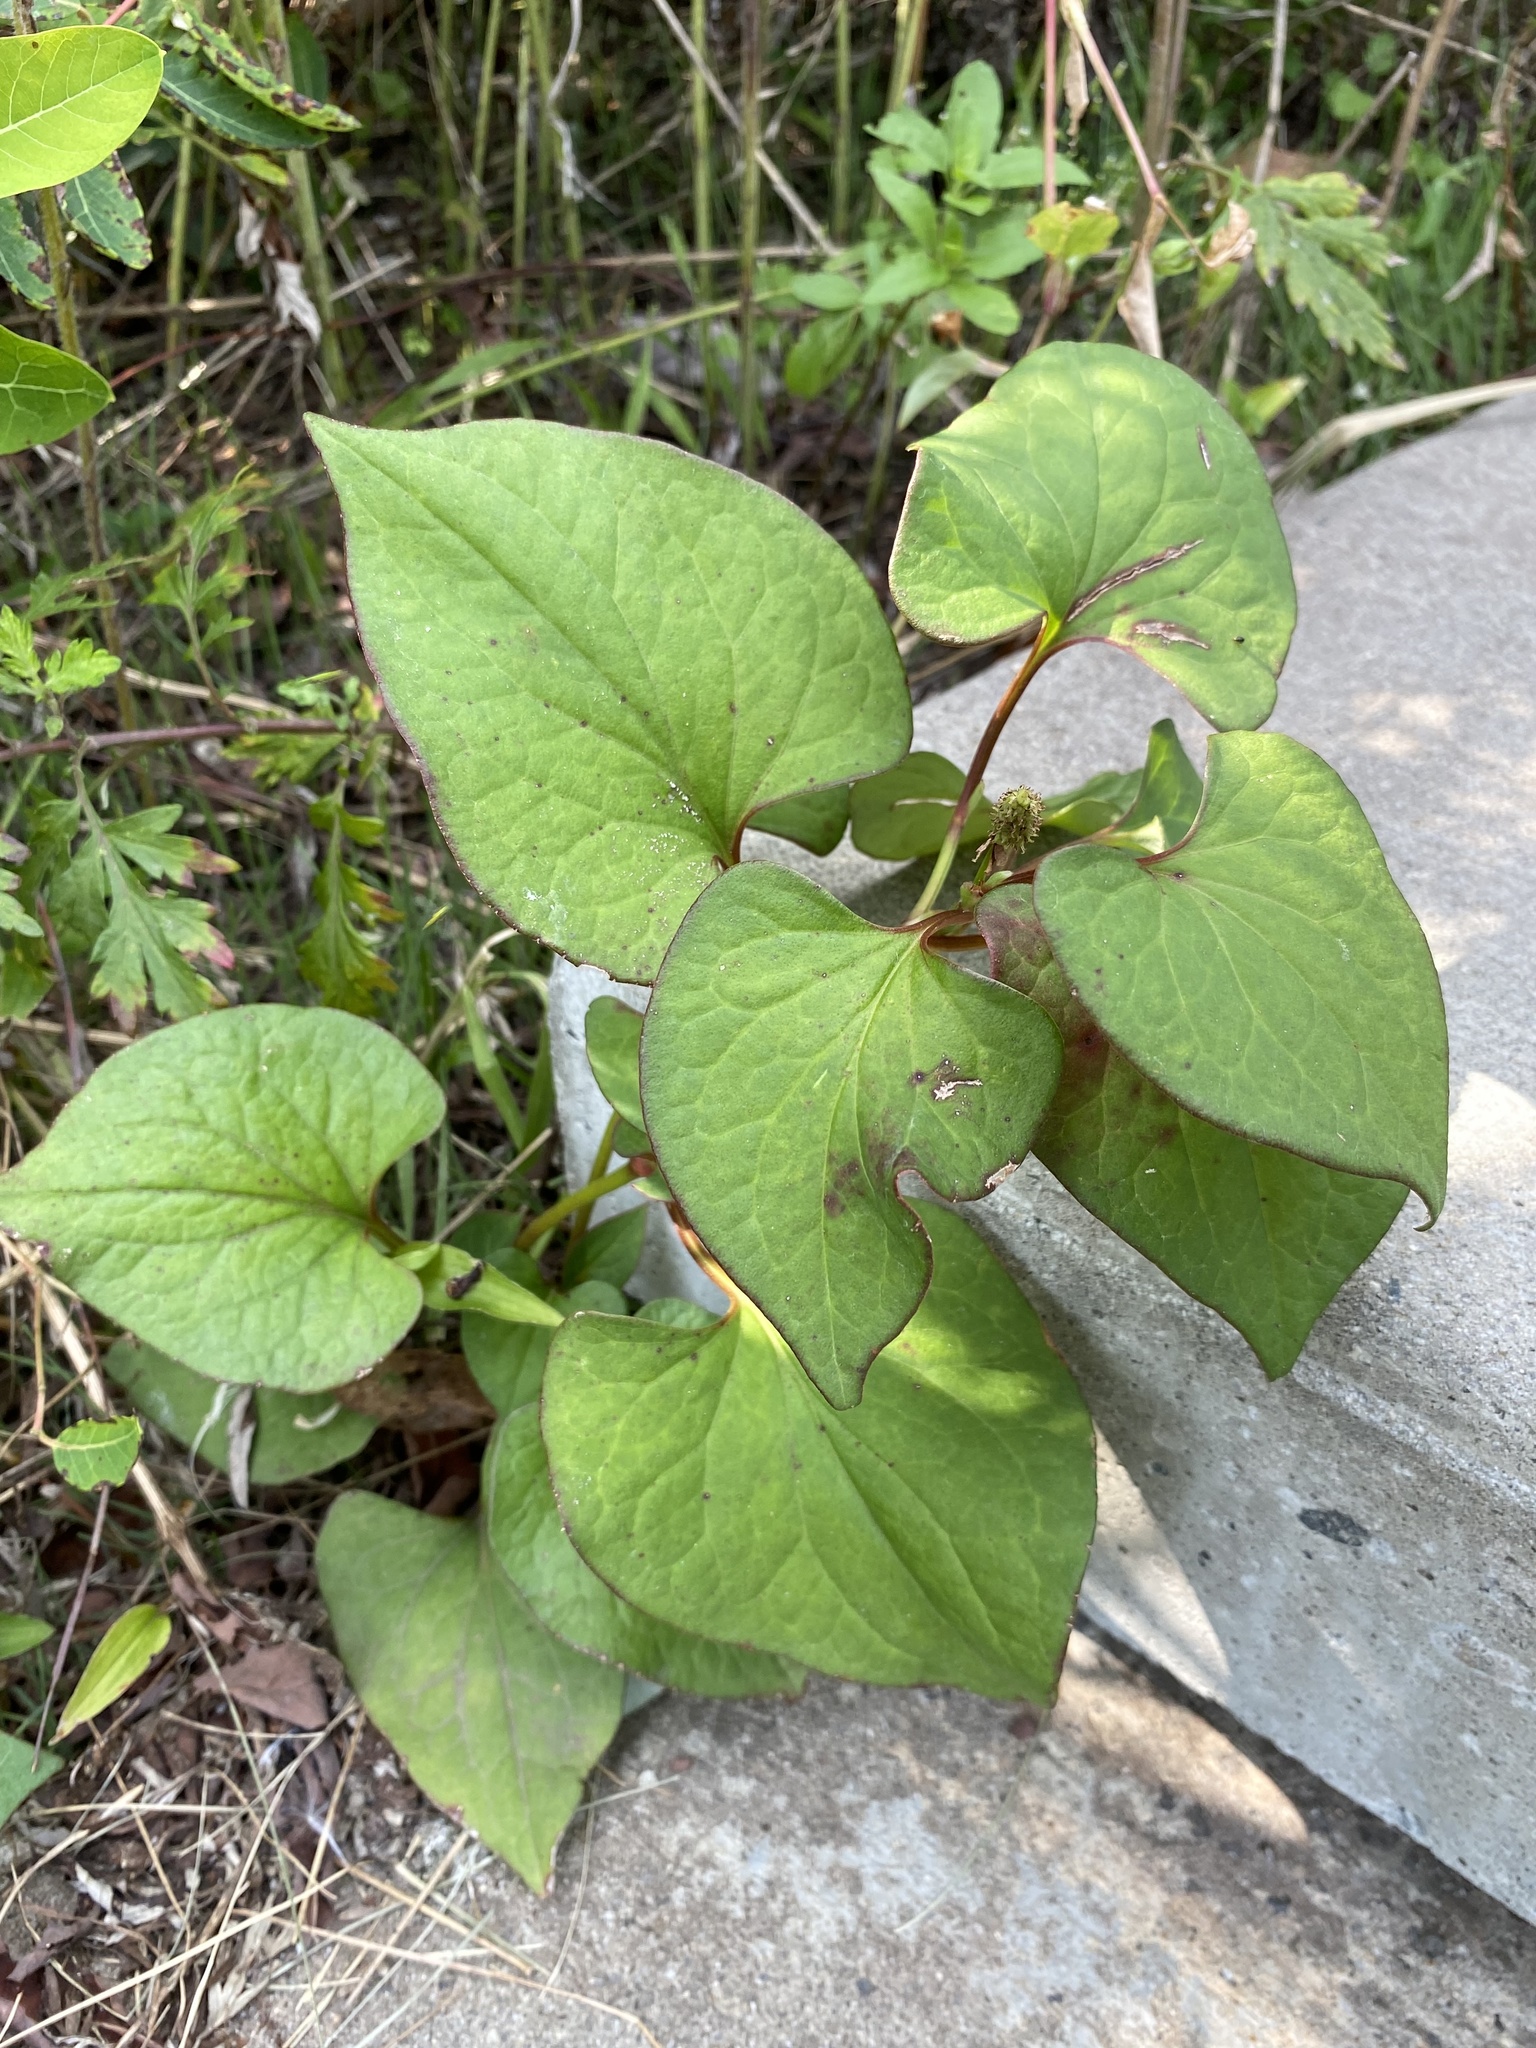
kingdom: Plantae
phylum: Tracheophyta
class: Magnoliopsida
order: Piperales
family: Saururaceae
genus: Houttuynia
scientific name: Houttuynia cordata
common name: Chameleon
